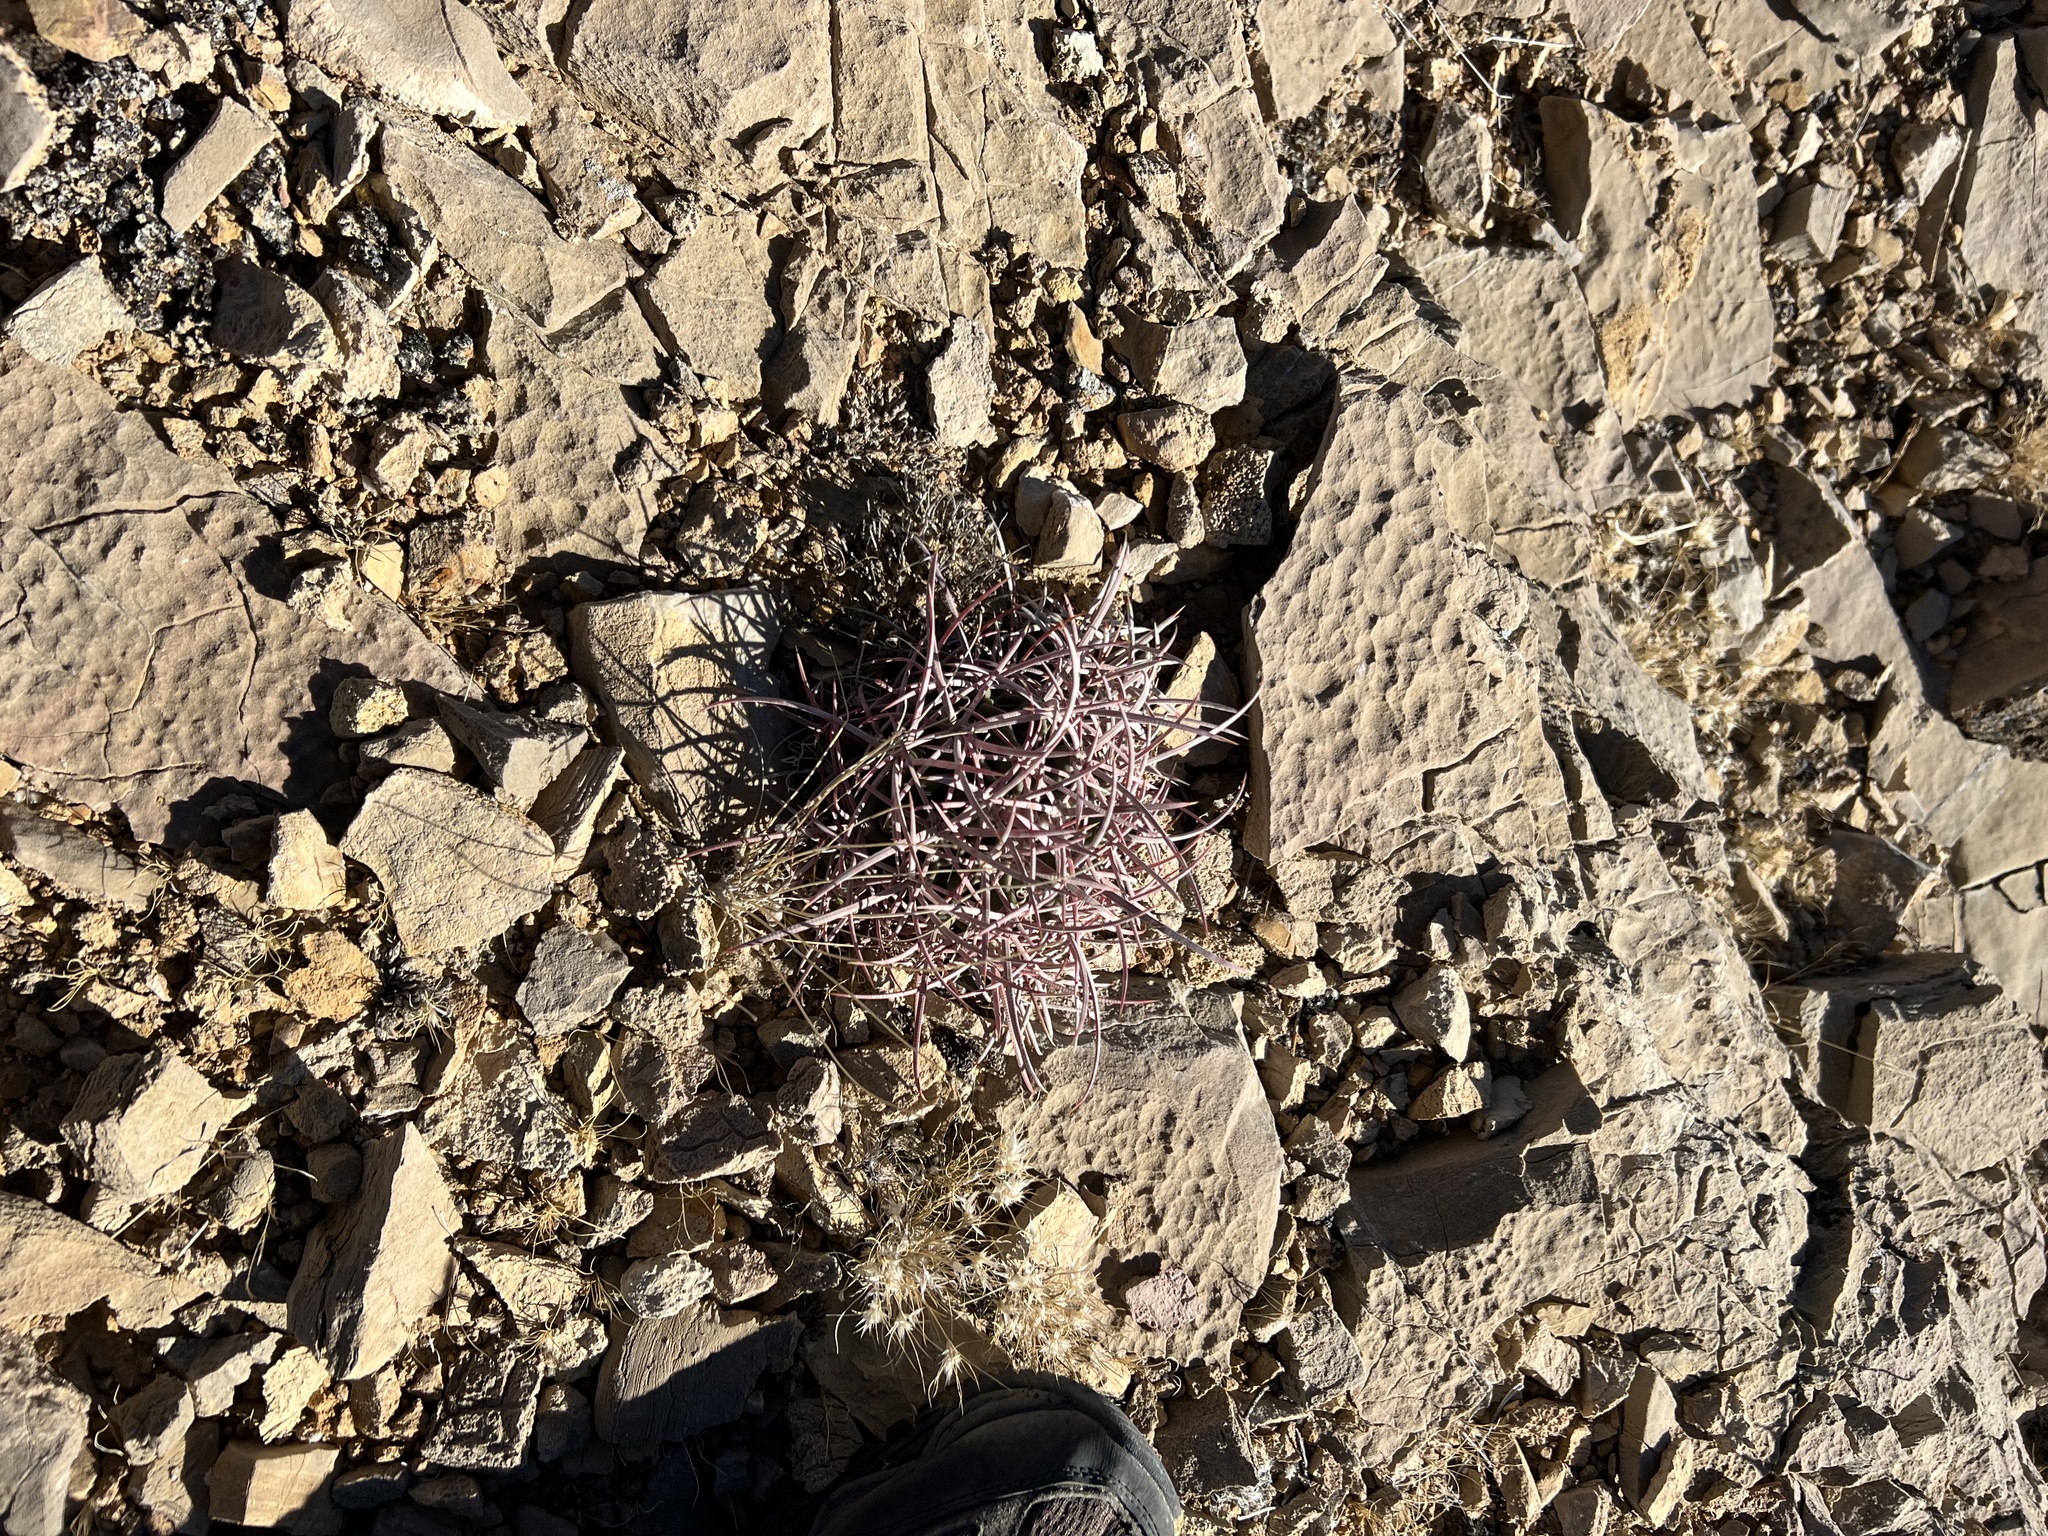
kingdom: Plantae
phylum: Tracheophyta
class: Magnoliopsida
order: Caryophyllales
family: Cactaceae
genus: Echinocactus
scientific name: Echinocactus polycephalus
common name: Cottontop cactus
